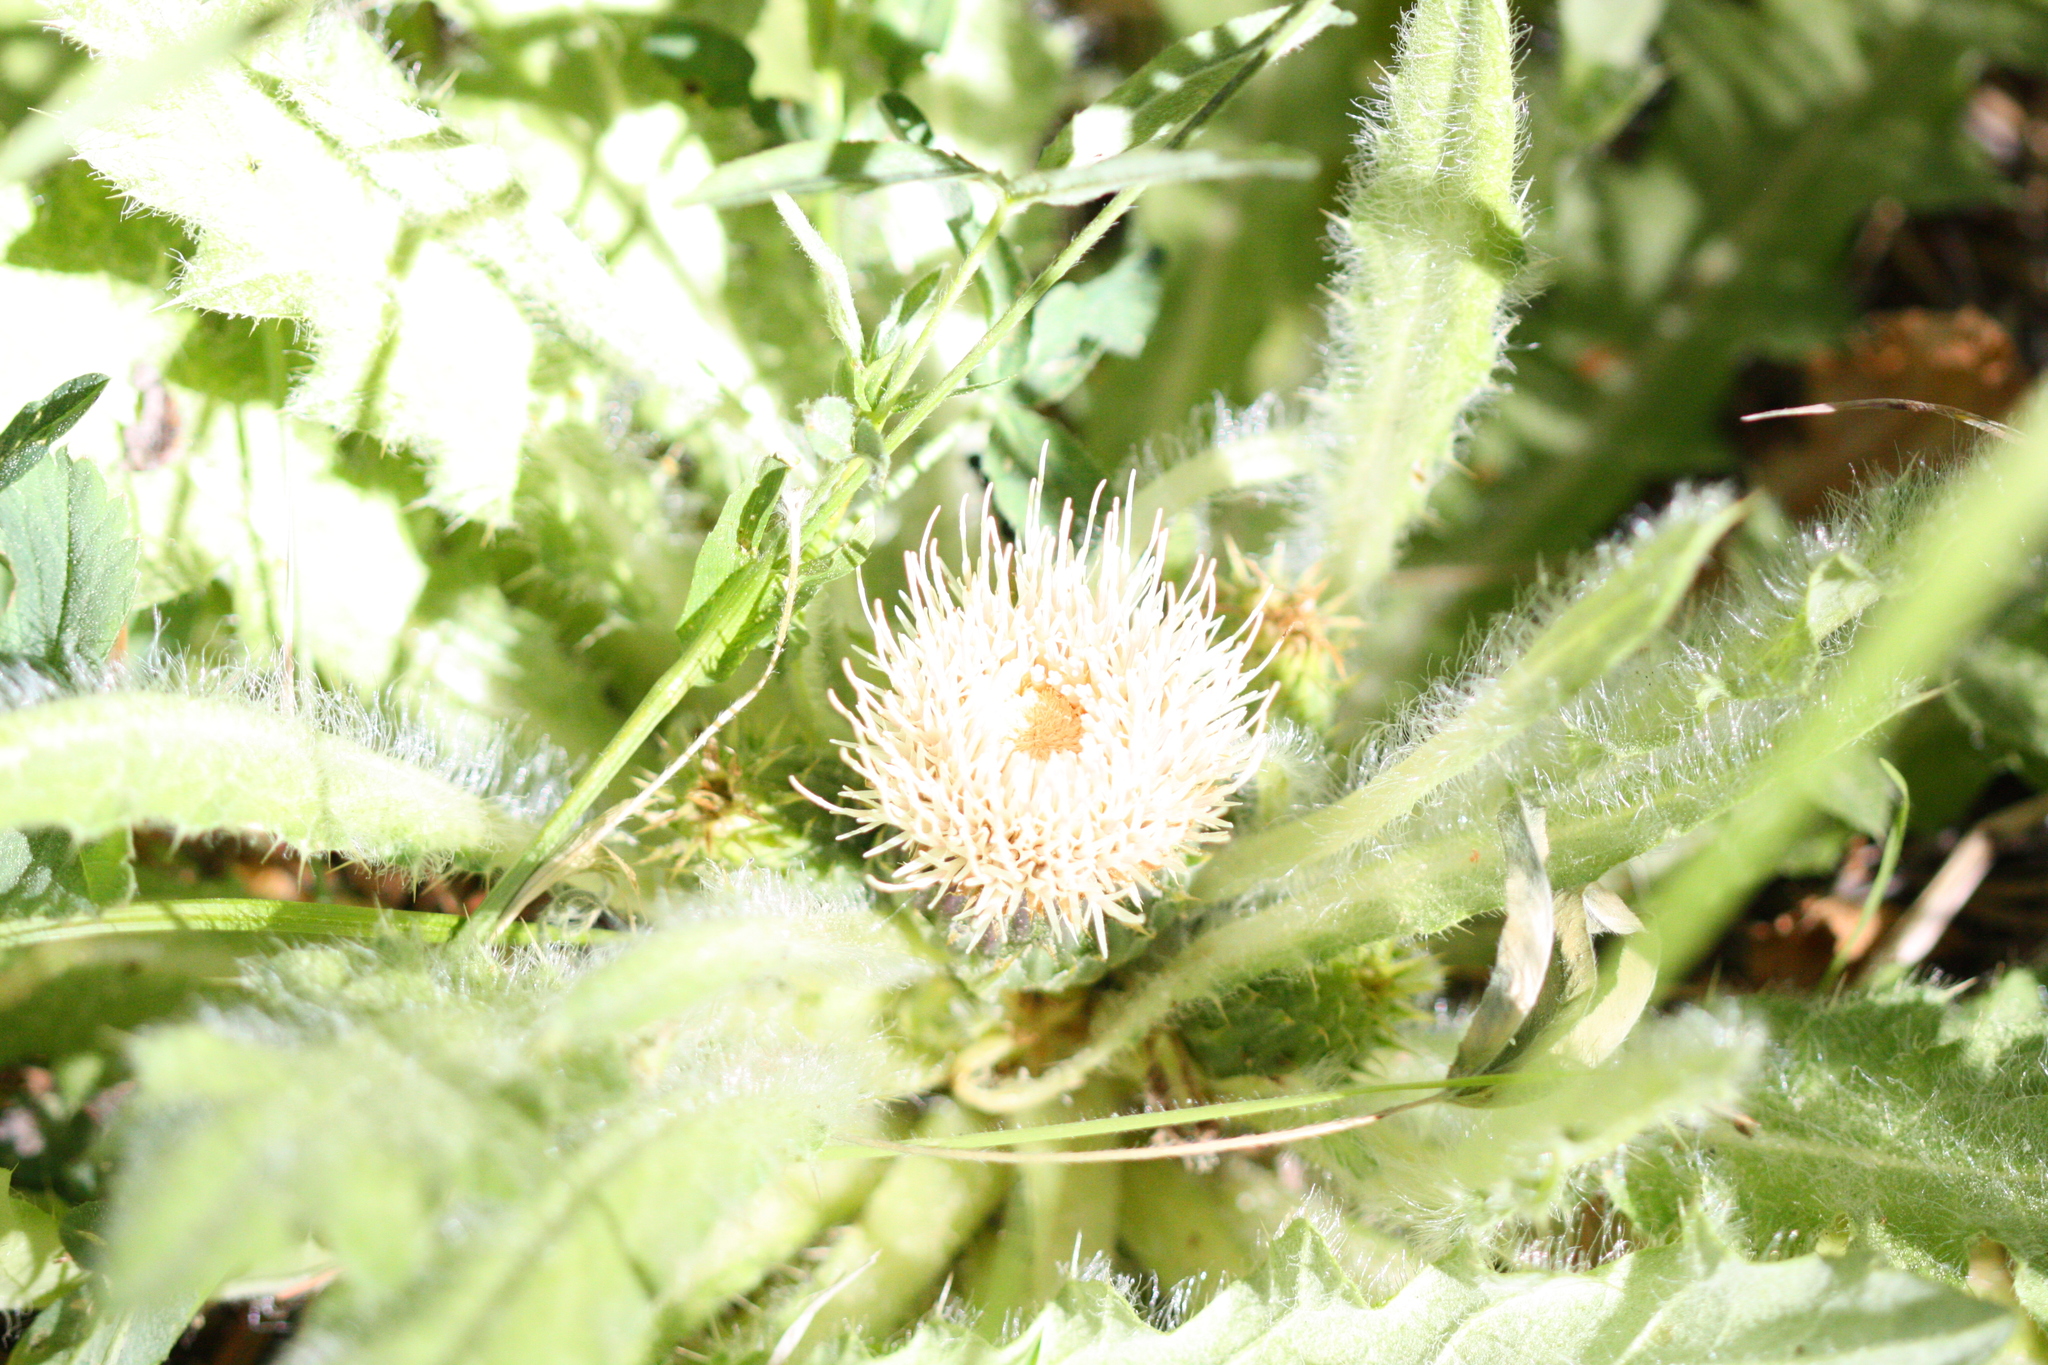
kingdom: Plantae
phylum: Tracheophyta
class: Magnoliopsida
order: Asterales
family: Asteraceae
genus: Cirsium
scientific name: Cirsium scariosum
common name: Meadow thistle
